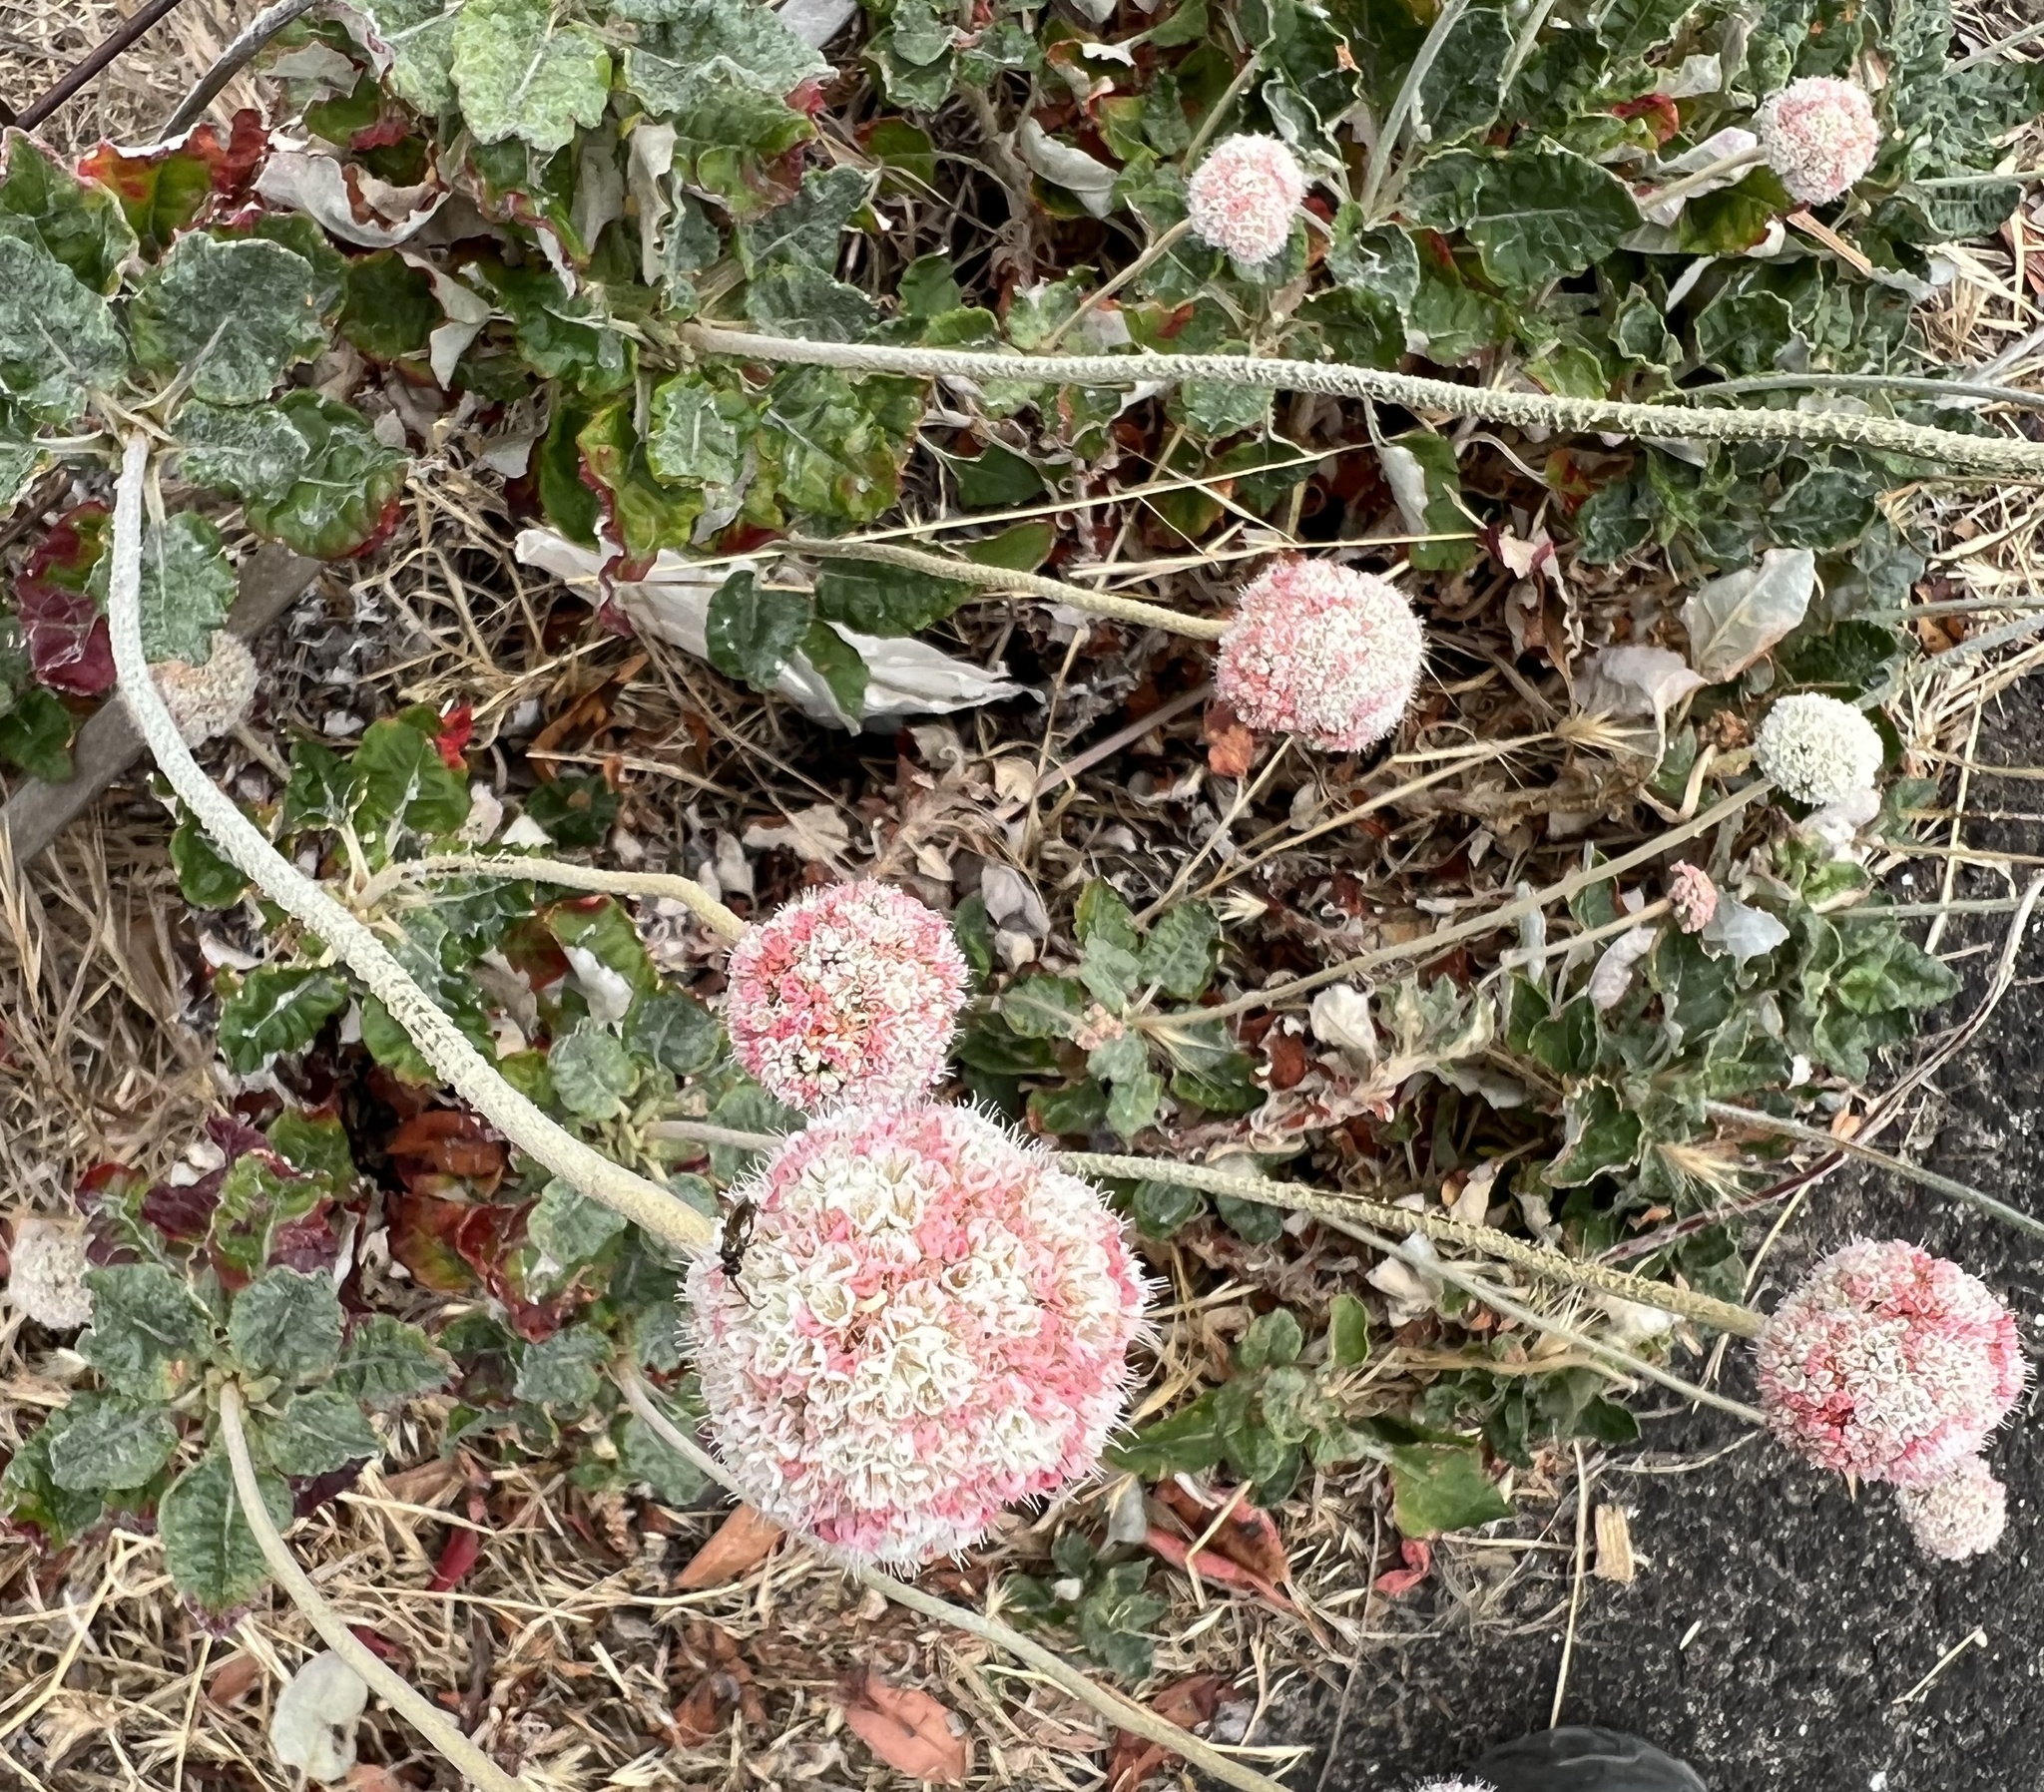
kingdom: Plantae
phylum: Tracheophyta
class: Magnoliopsida
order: Caryophyllales
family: Polygonaceae
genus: Eriogonum
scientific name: Eriogonum latifolium
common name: Seaside wild buckwheat
